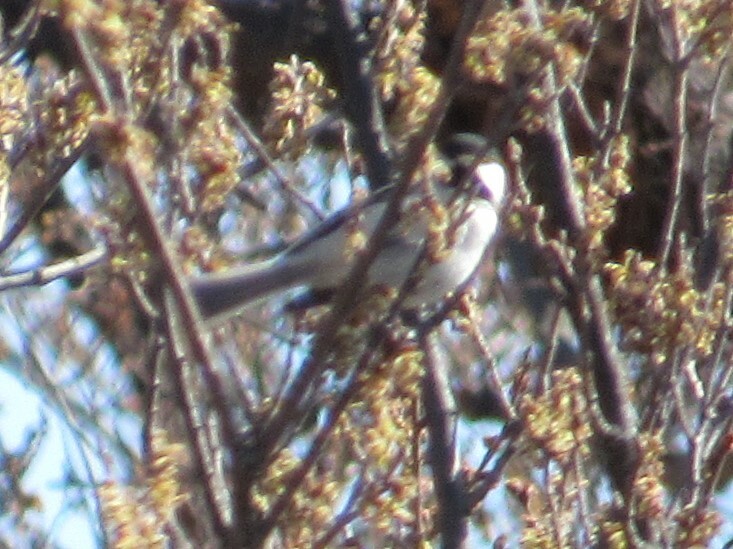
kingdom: Animalia
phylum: Chordata
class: Aves
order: Passeriformes
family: Paridae
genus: Poecile
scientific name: Poecile carolinensis
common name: Carolina chickadee
